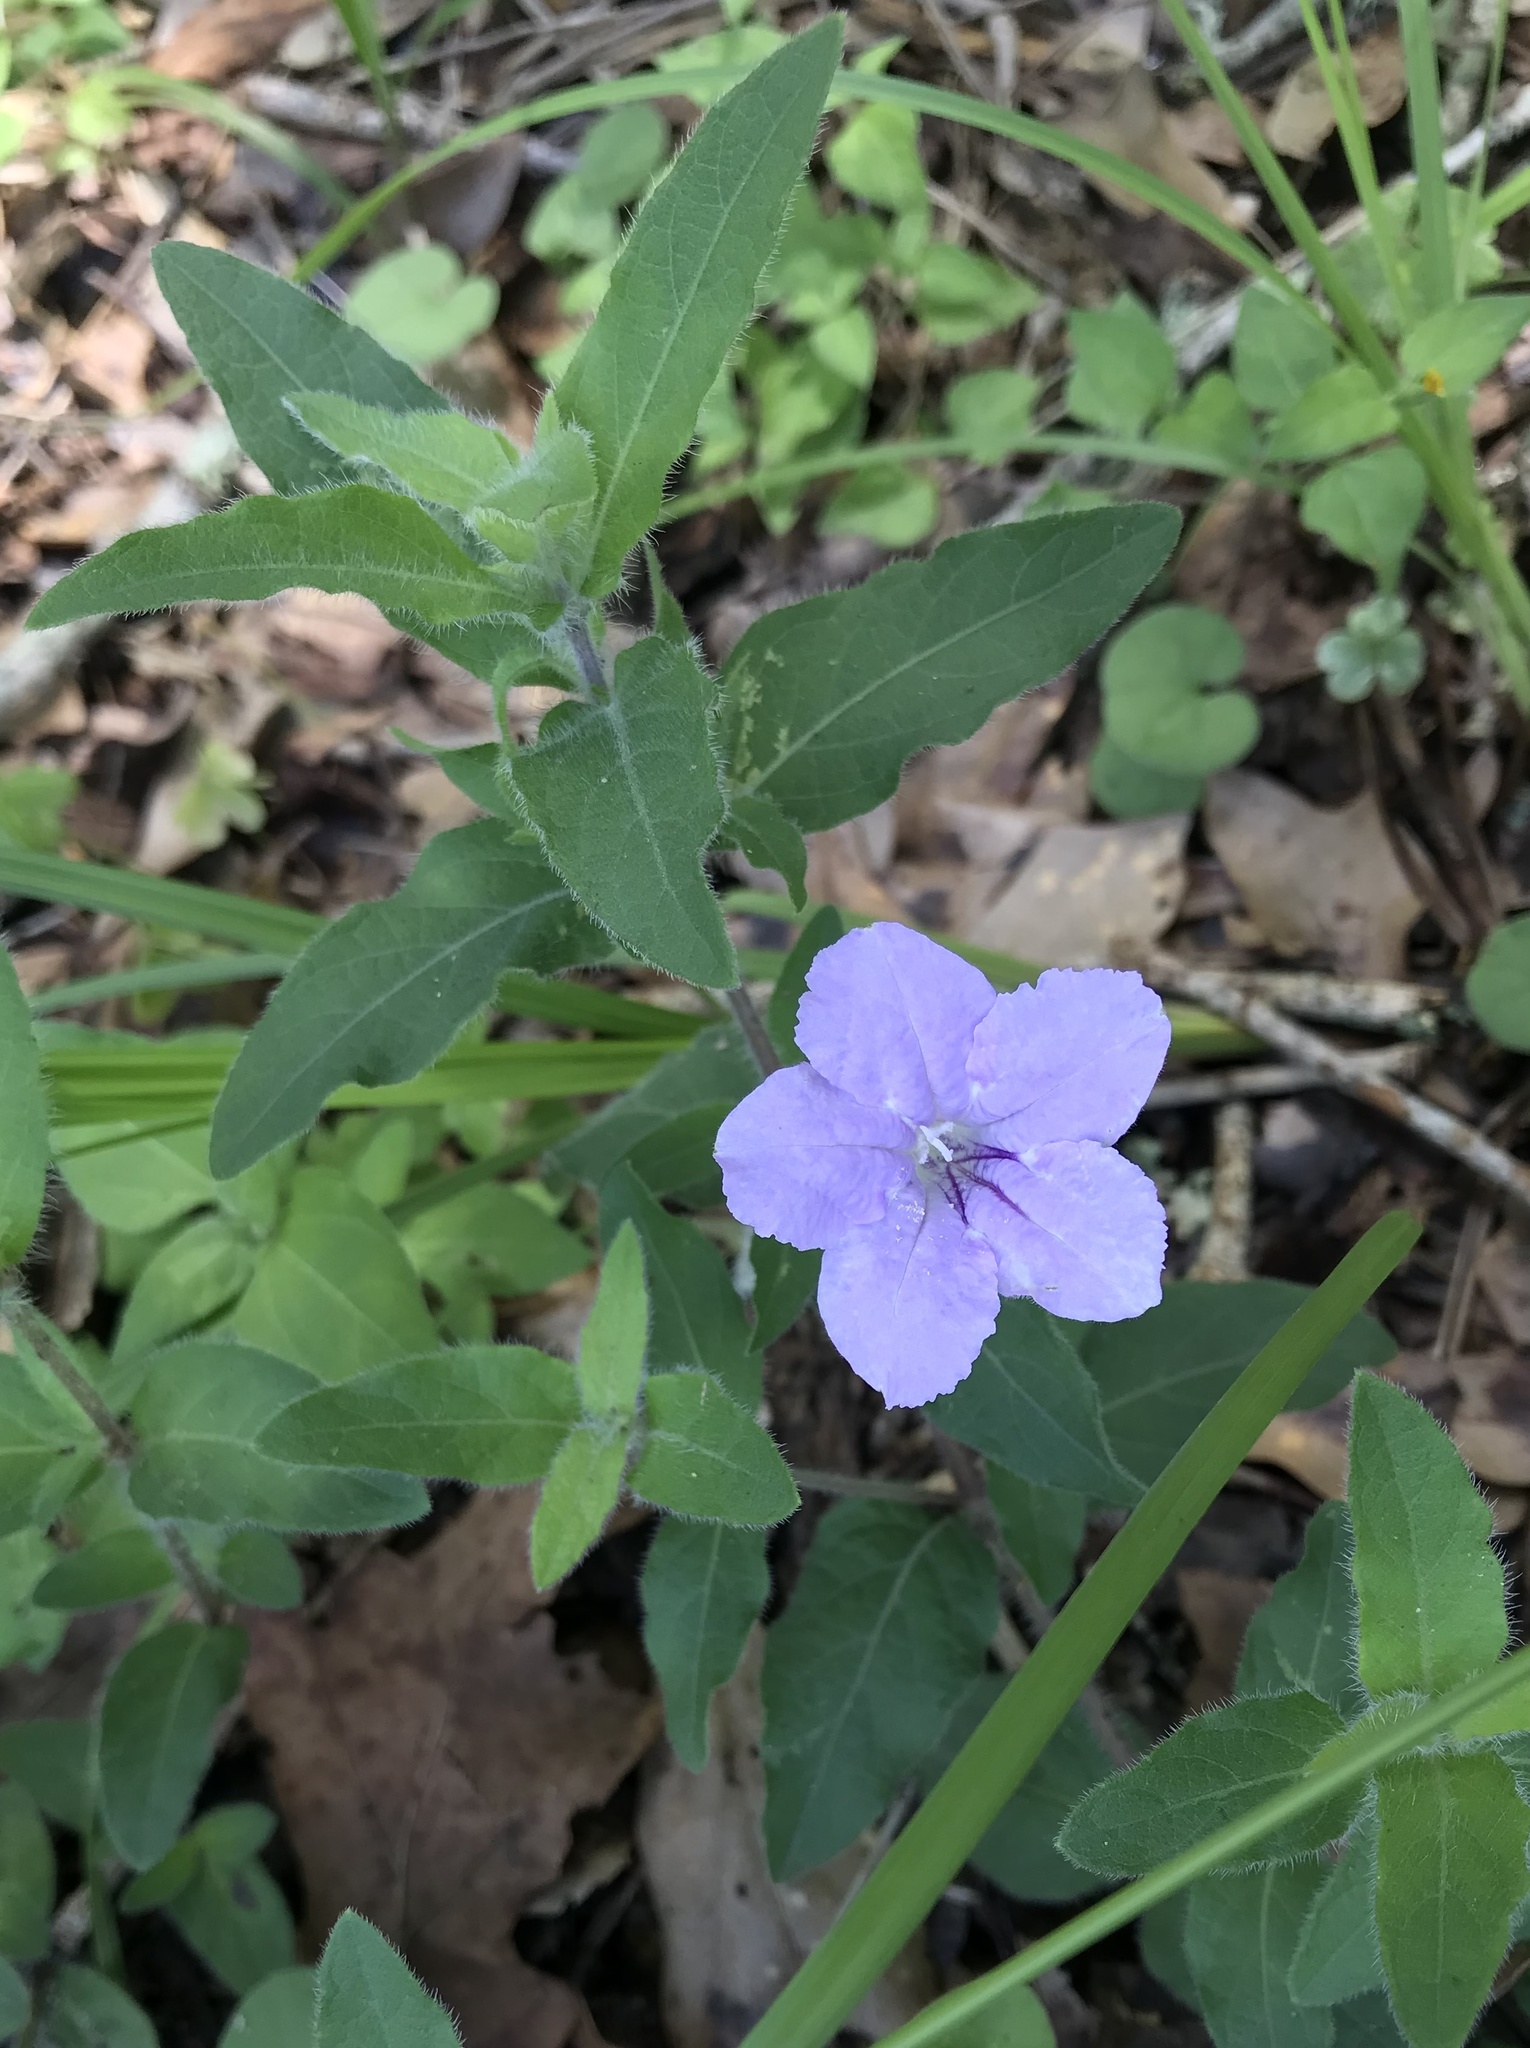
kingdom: Plantae
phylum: Tracheophyta
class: Magnoliopsida
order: Lamiales
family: Acanthaceae
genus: Ruellia
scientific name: Ruellia humilis
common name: Fringe-leaf ruellia
